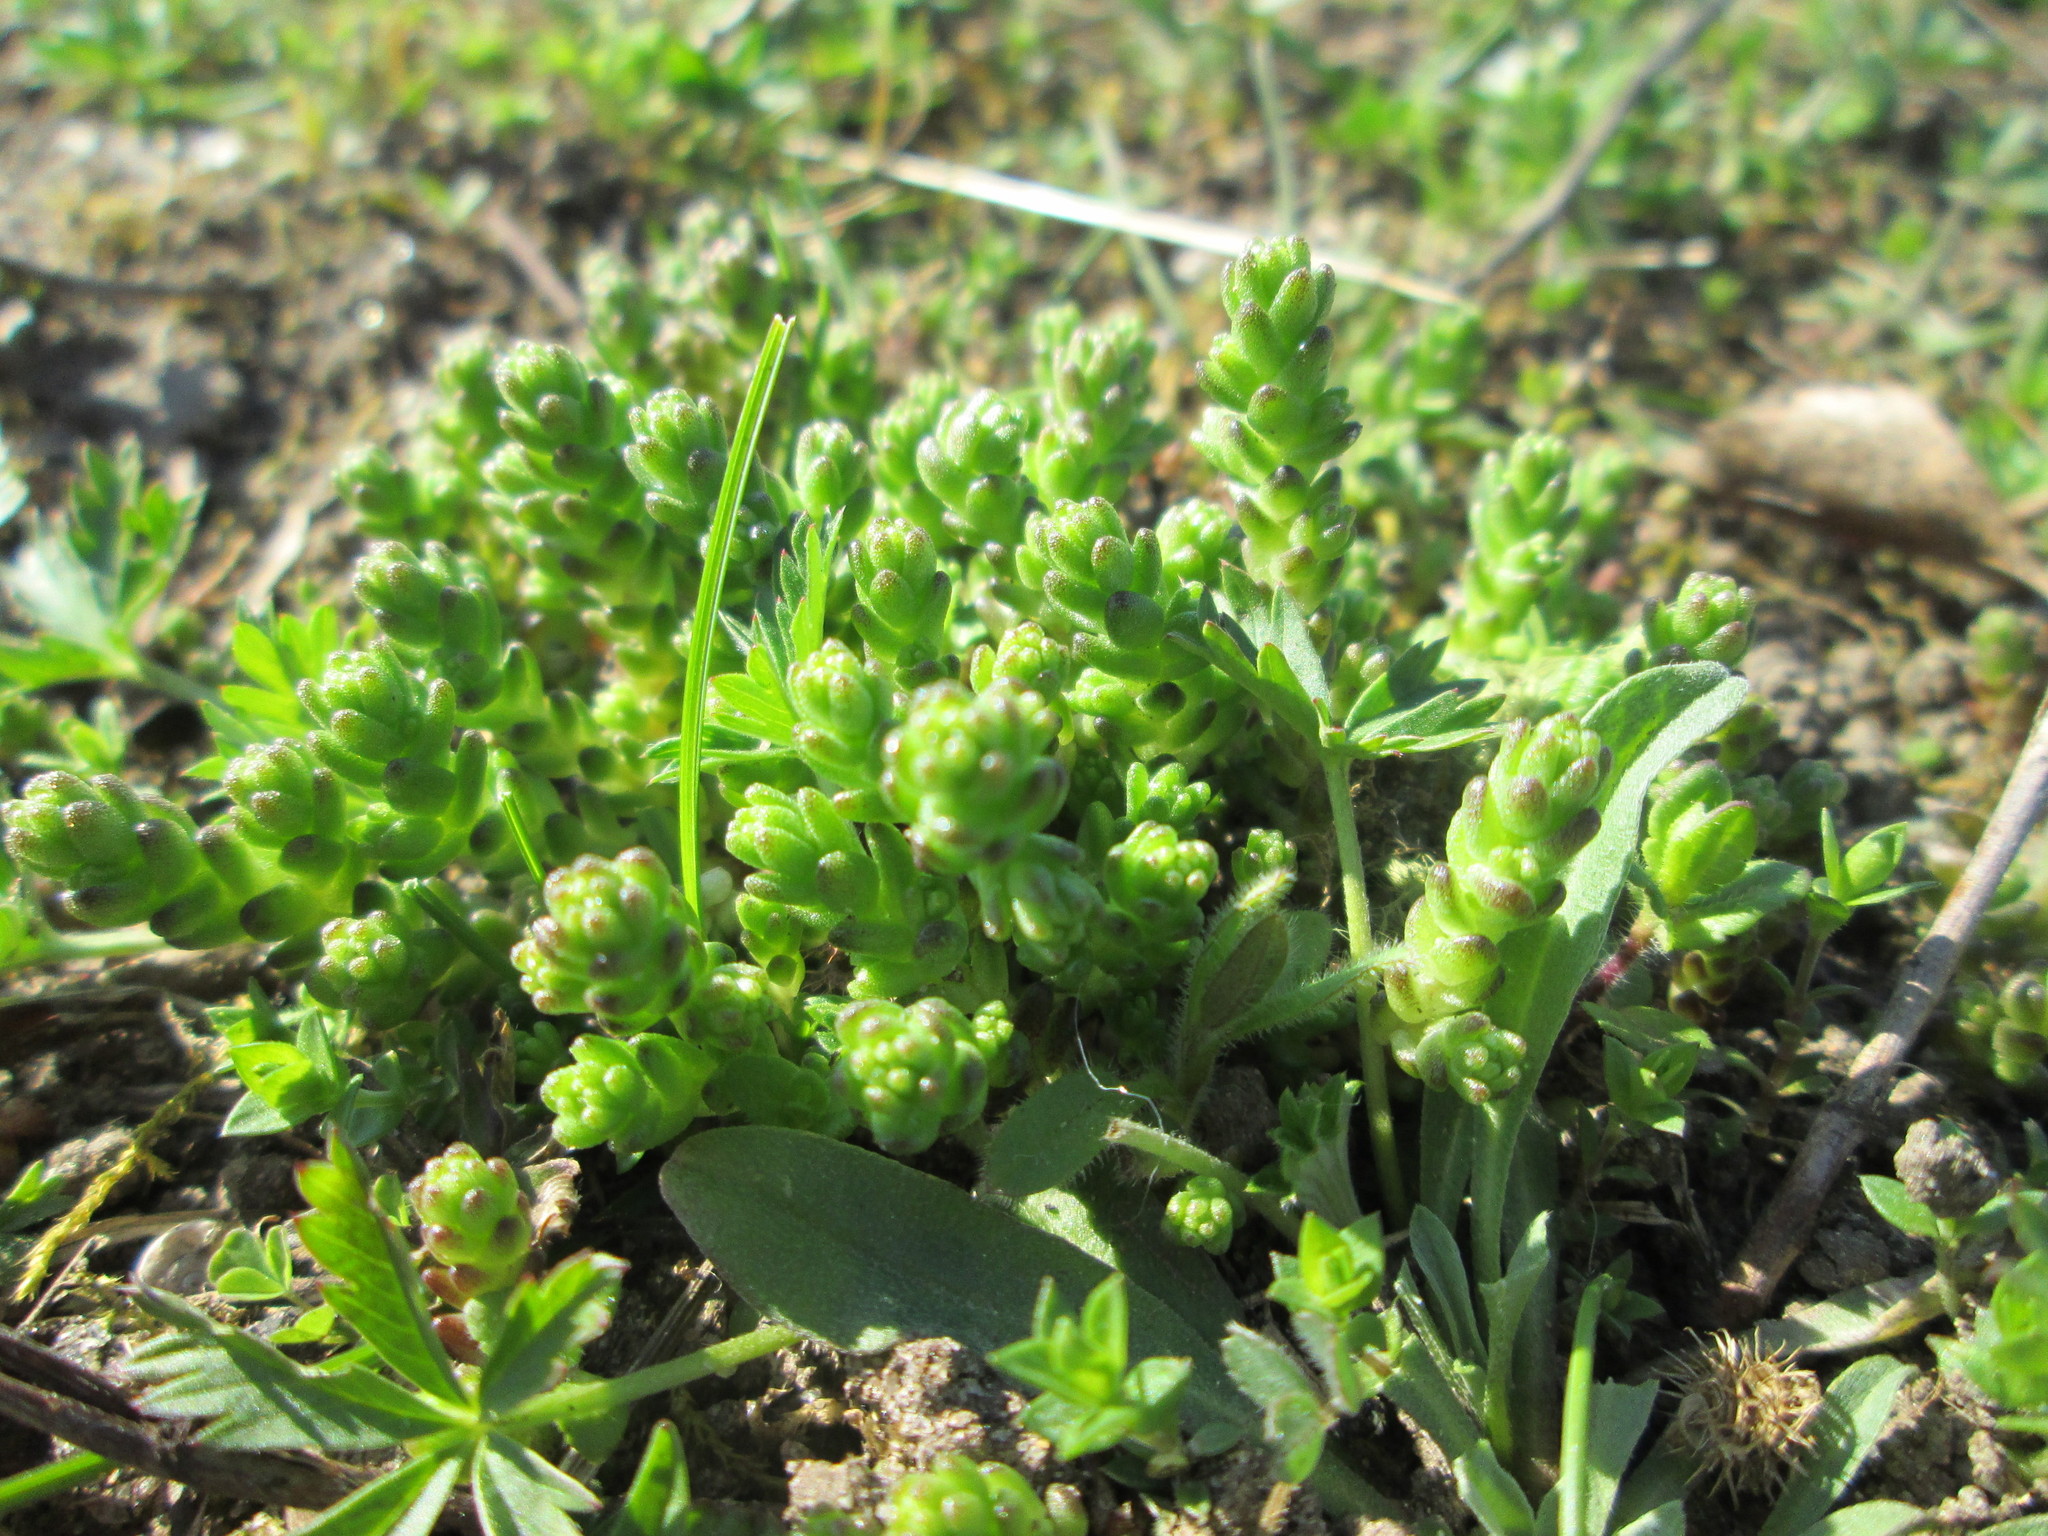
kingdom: Plantae
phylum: Tracheophyta
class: Magnoliopsida
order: Saxifragales
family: Crassulaceae
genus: Sedum
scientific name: Sedum acre
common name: Biting stonecrop
